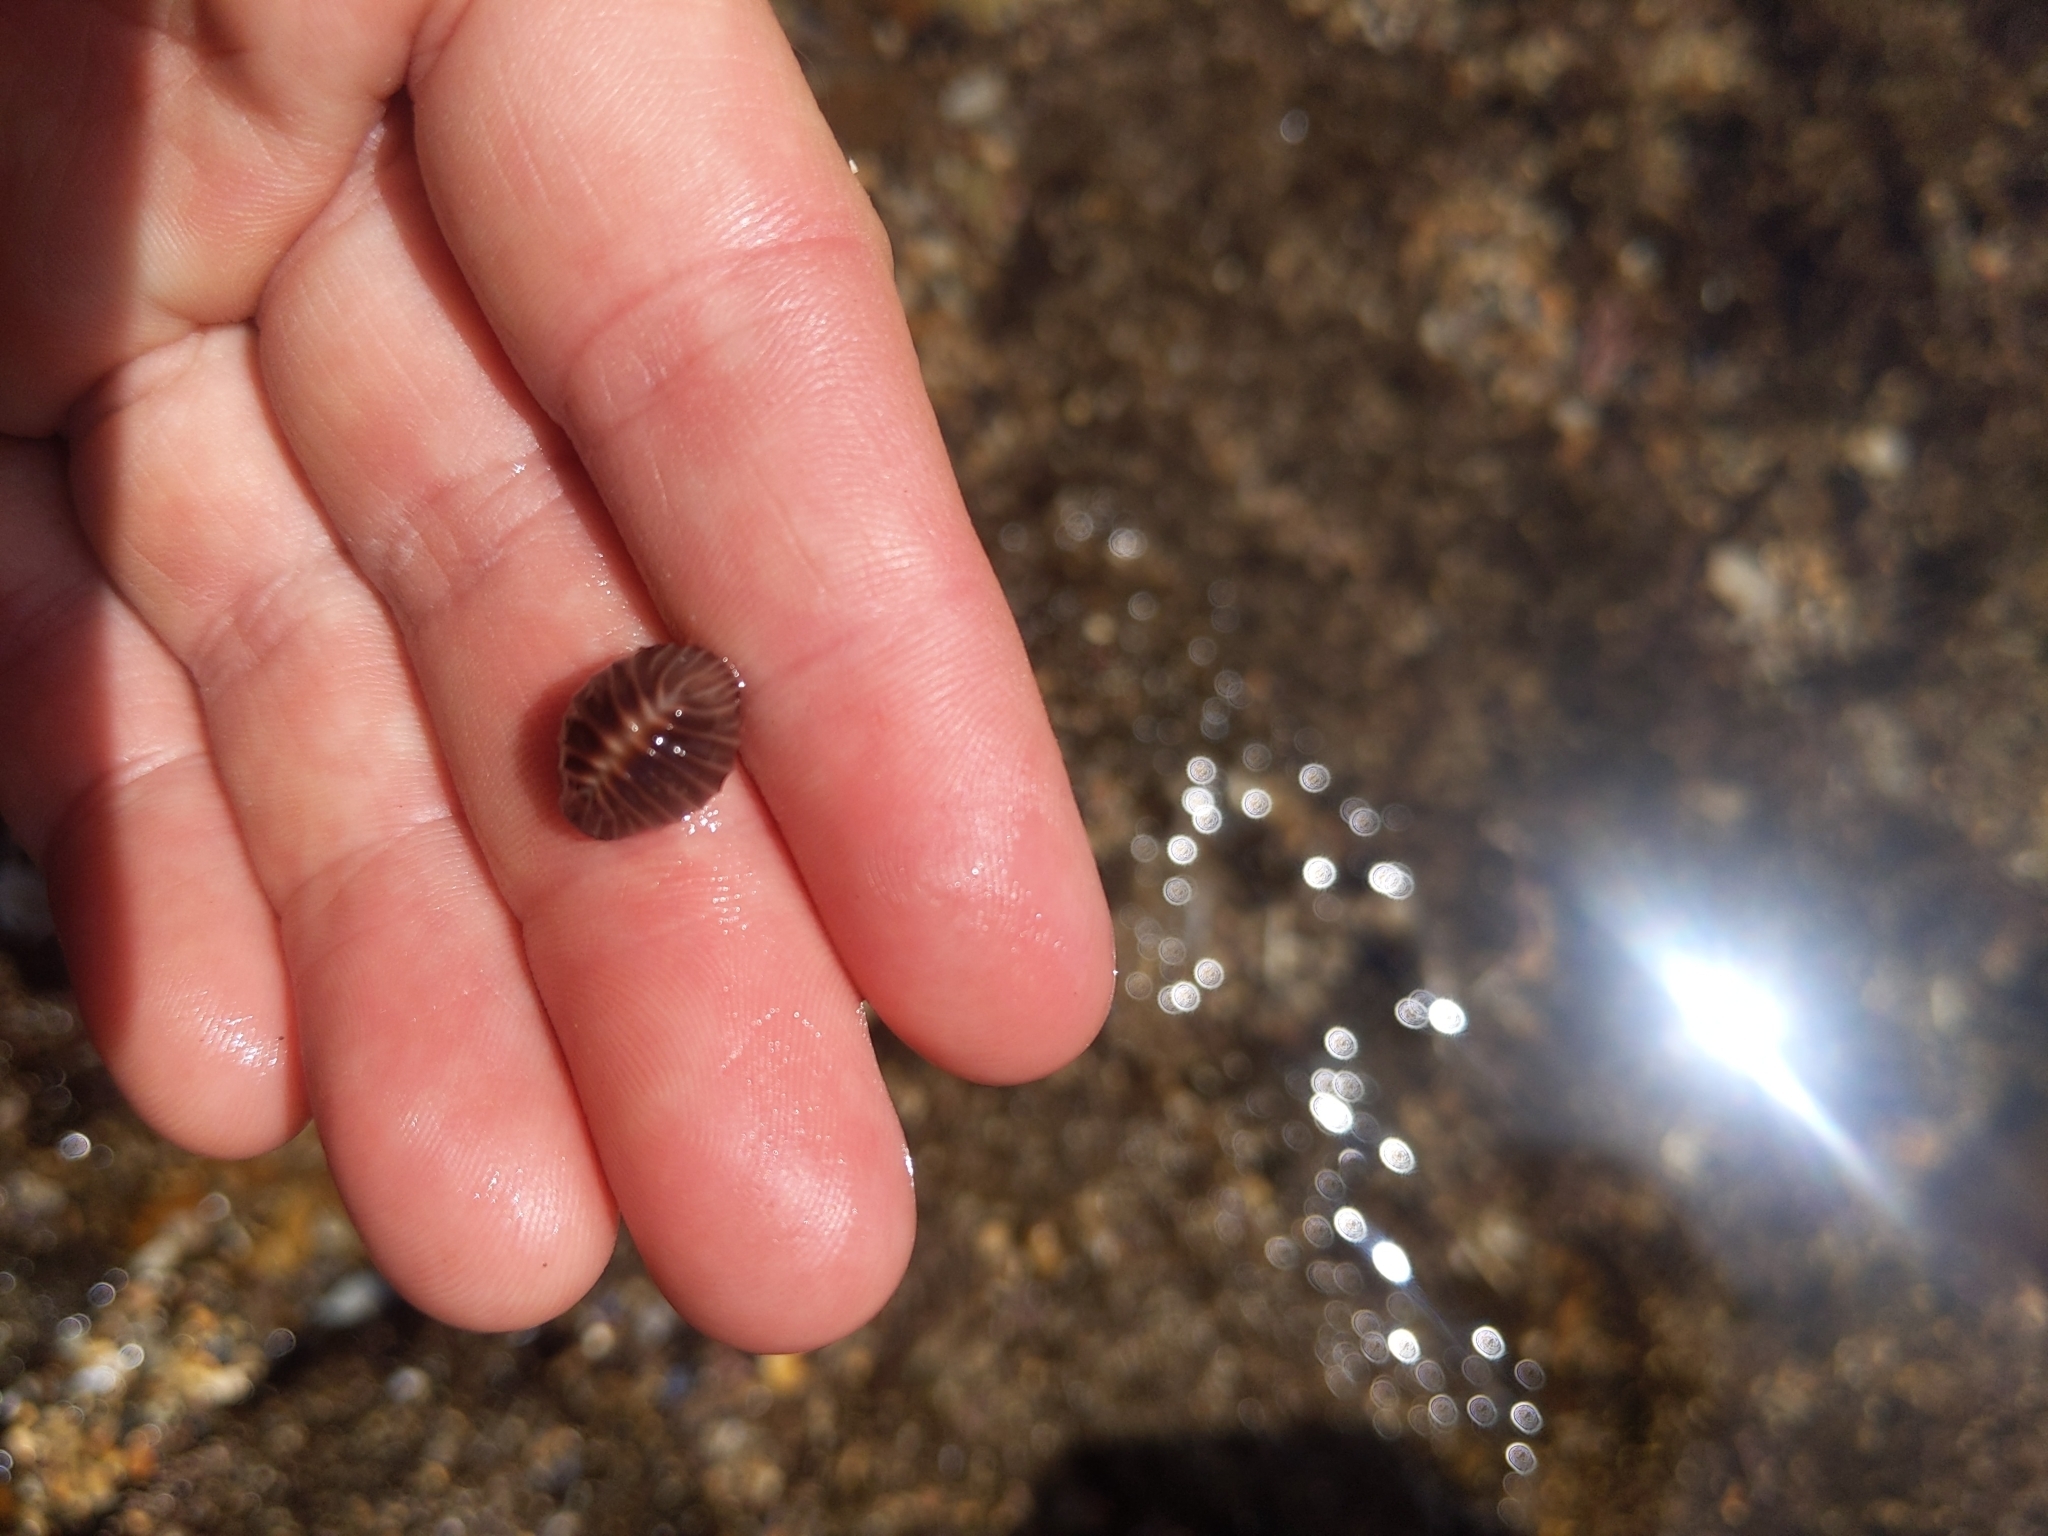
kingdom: Animalia
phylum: Mollusca
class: Gastropoda
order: Littorinimorpha
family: Triviidae
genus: Pseudopusula
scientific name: Pseudopusula californiana
